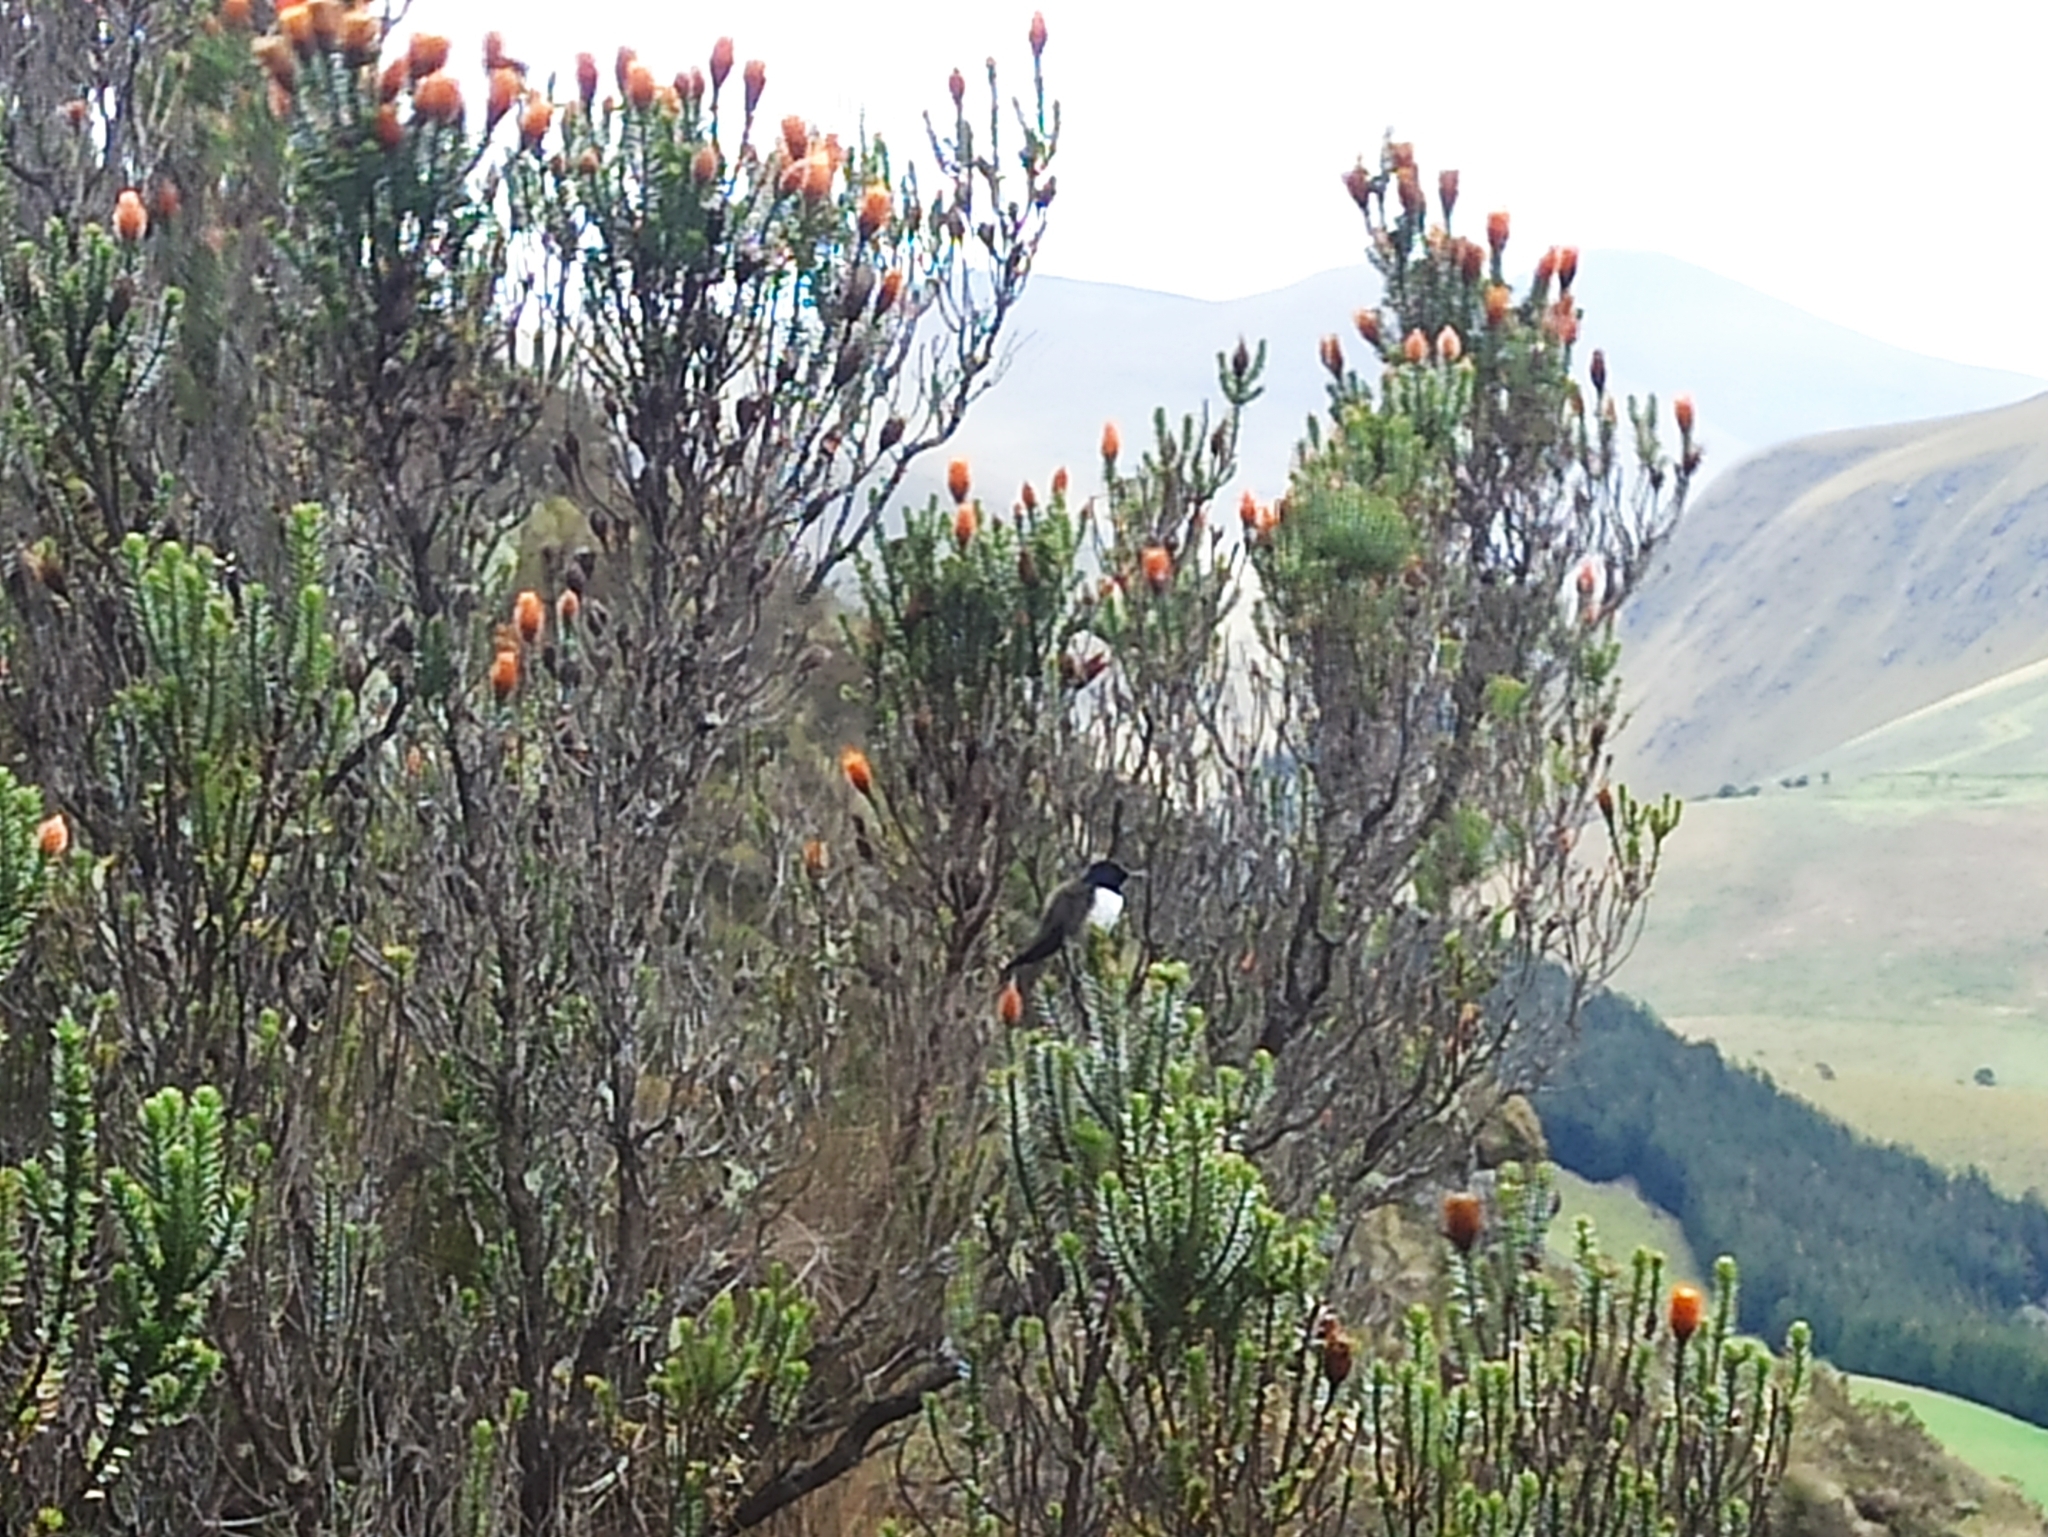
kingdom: Animalia
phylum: Chordata
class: Aves
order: Apodiformes
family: Trochilidae
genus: Oreotrochilus
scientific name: Oreotrochilus chimborazo
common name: Ecuadorian hillstar
